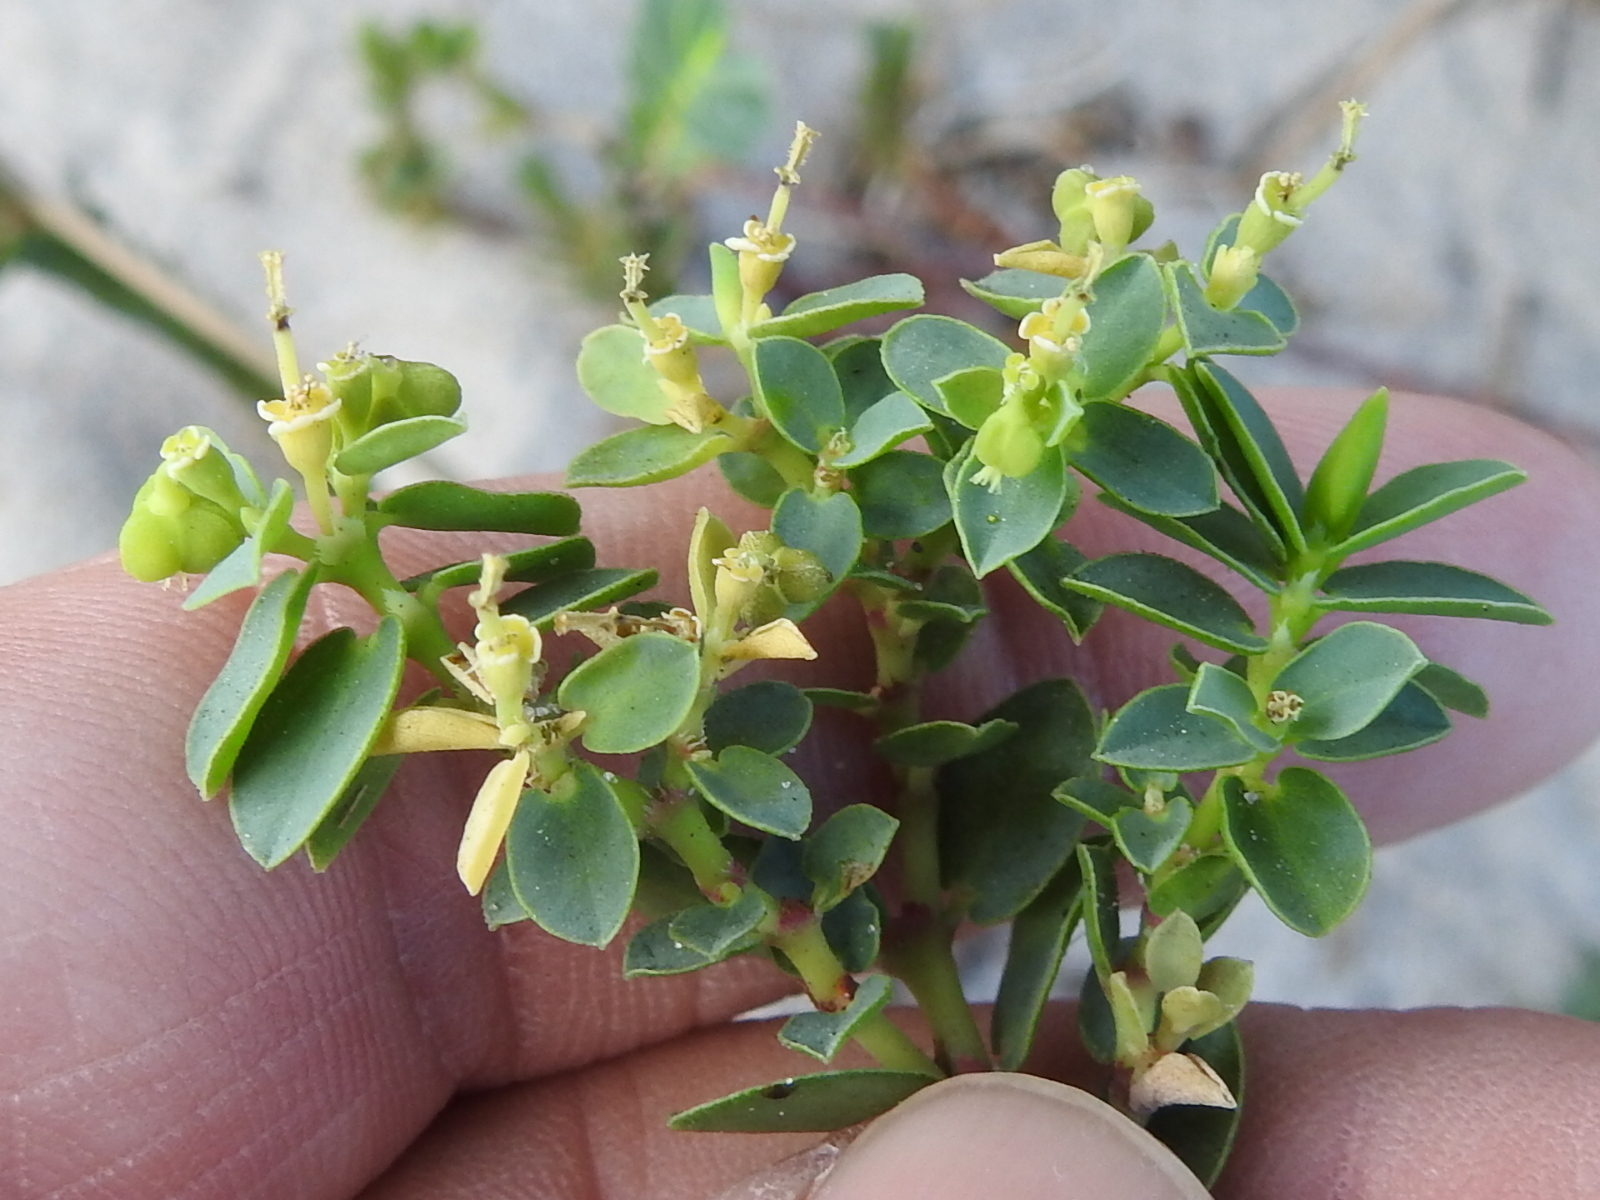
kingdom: Plantae
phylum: Tracheophyta
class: Magnoliopsida
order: Malpighiales
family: Euphorbiaceae
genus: Euphorbia
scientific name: Euphorbia mesembryanthemifolia
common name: Coastal beach sandmat
